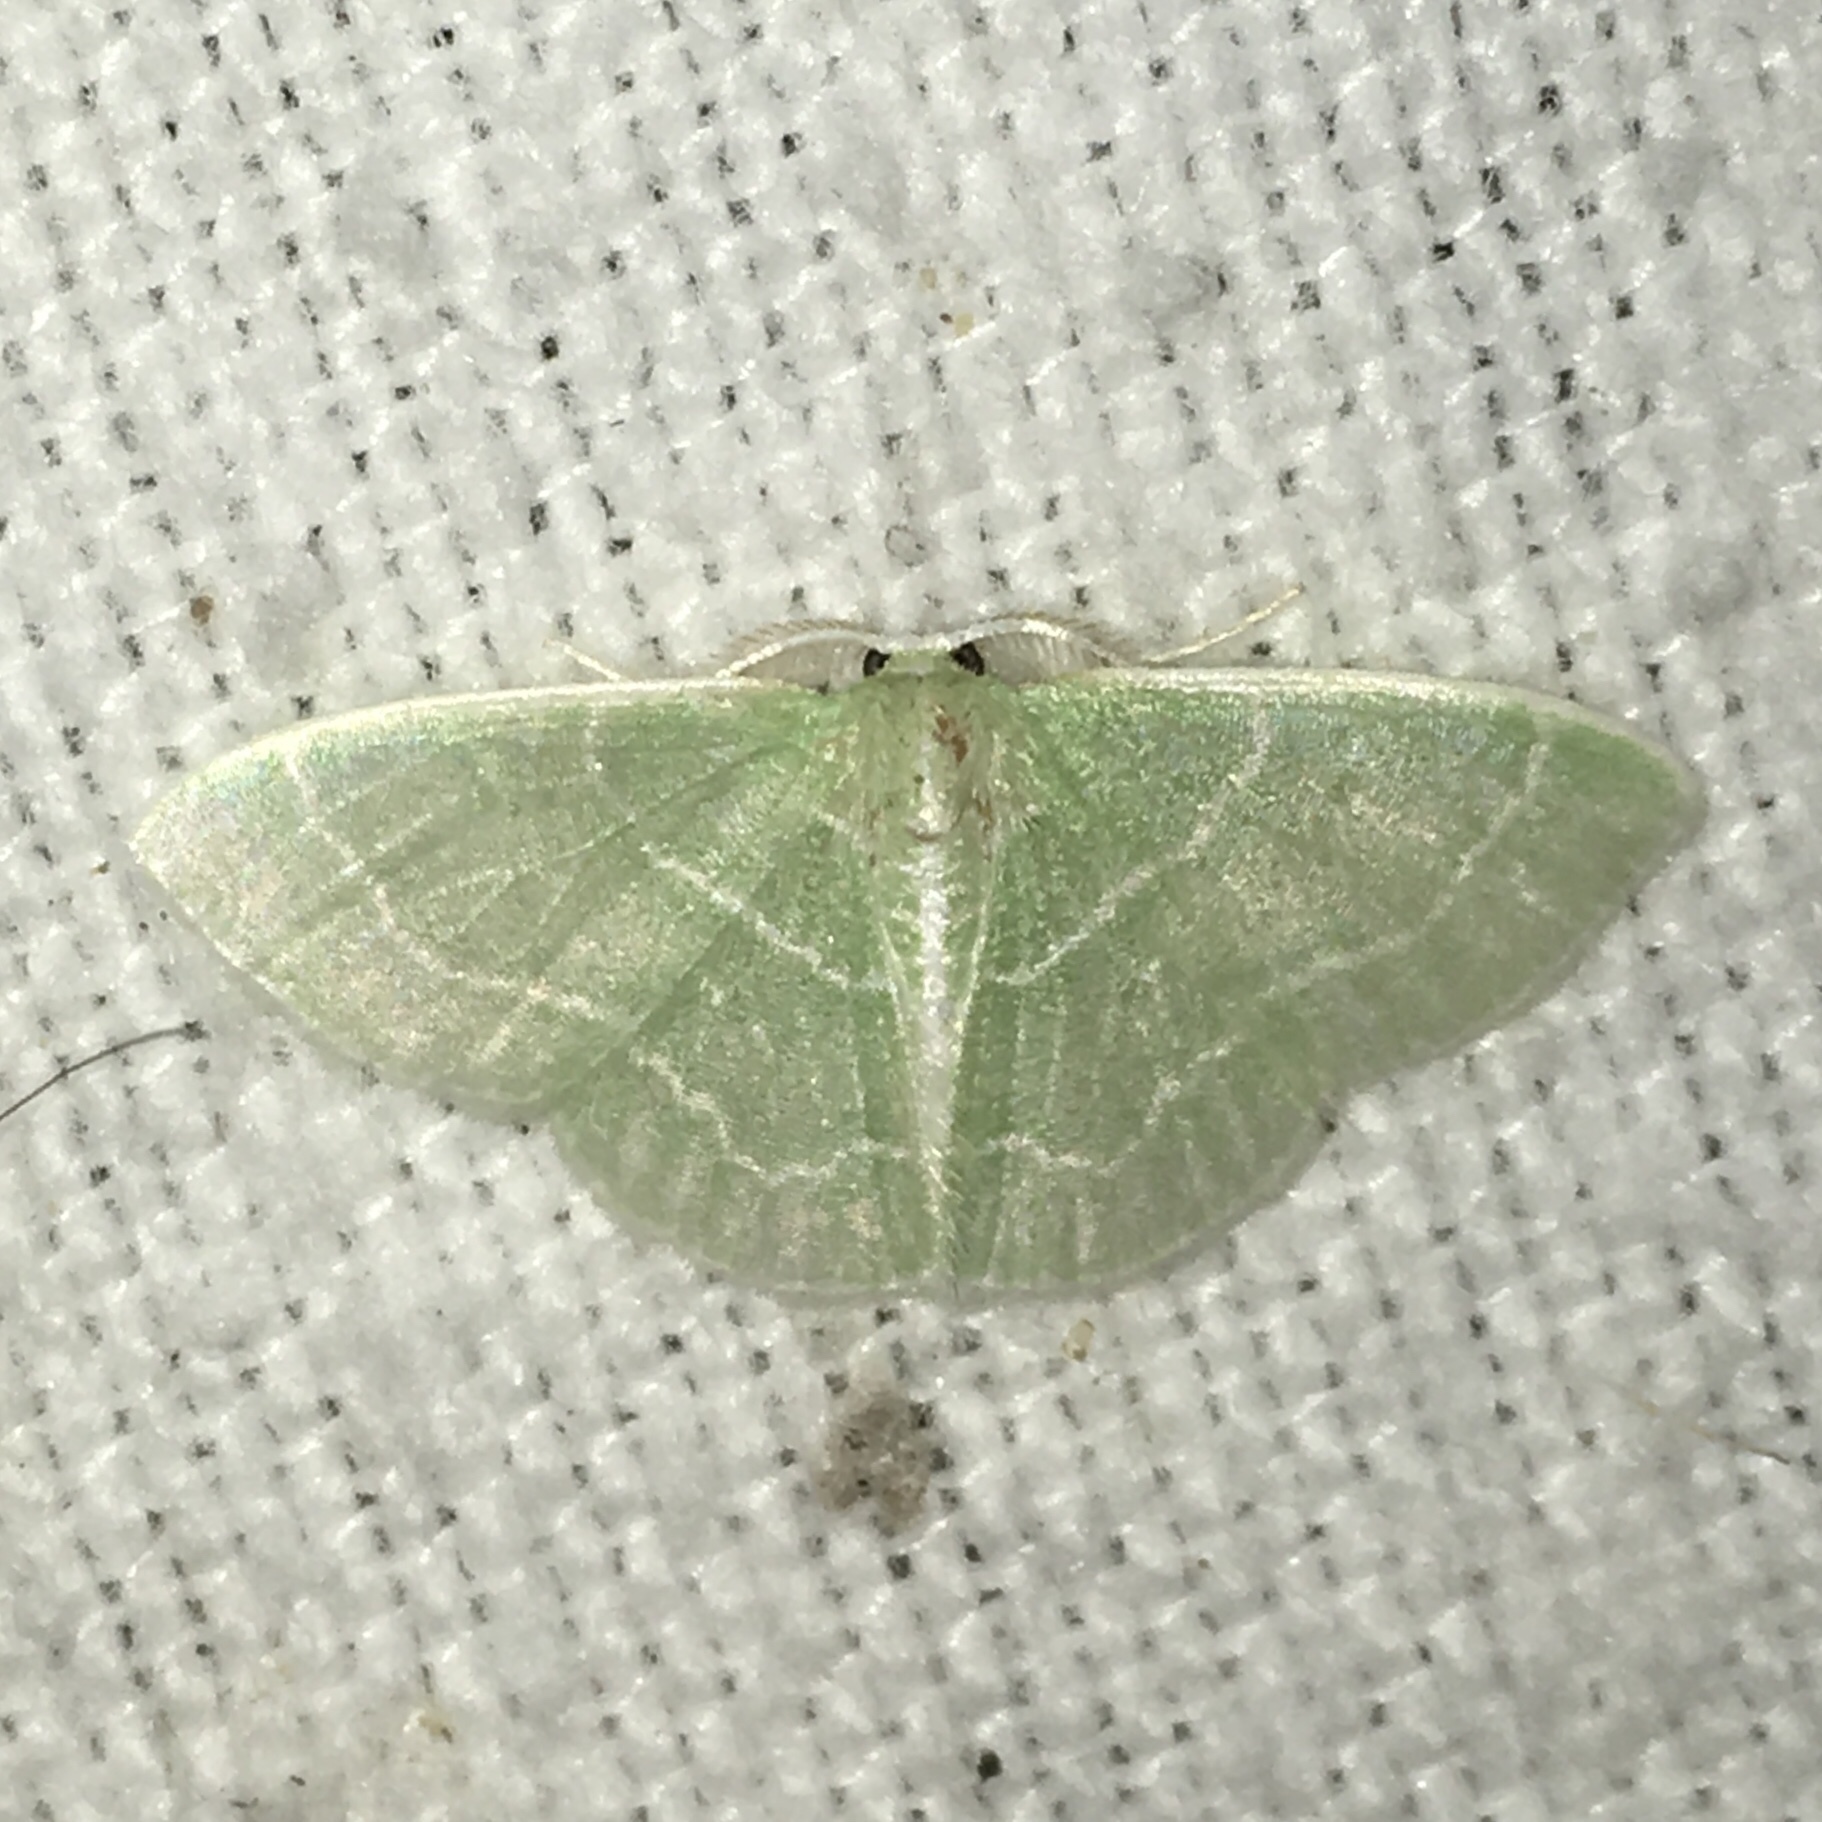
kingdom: Animalia
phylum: Arthropoda
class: Insecta
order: Lepidoptera
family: Geometridae
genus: Synchlora
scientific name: Synchlora aerata
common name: Wavy-lined emerald
